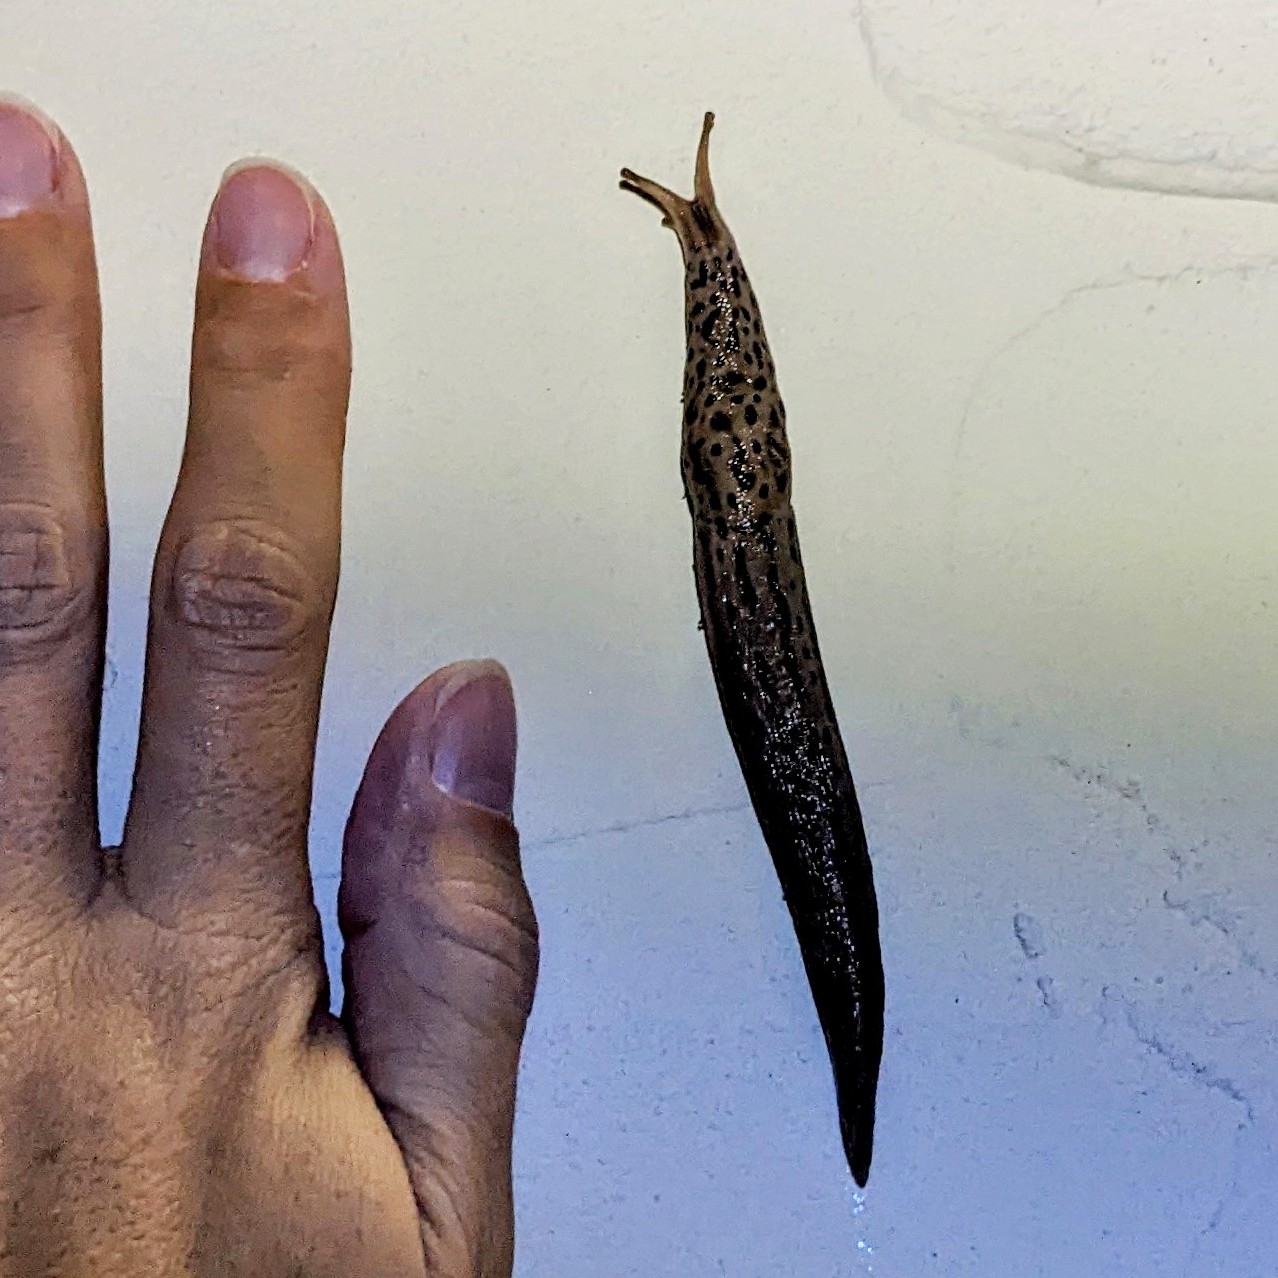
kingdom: Animalia
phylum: Mollusca
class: Gastropoda
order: Stylommatophora
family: Limacidae
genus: Limax
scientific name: Limax maximus
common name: Great grey slug
